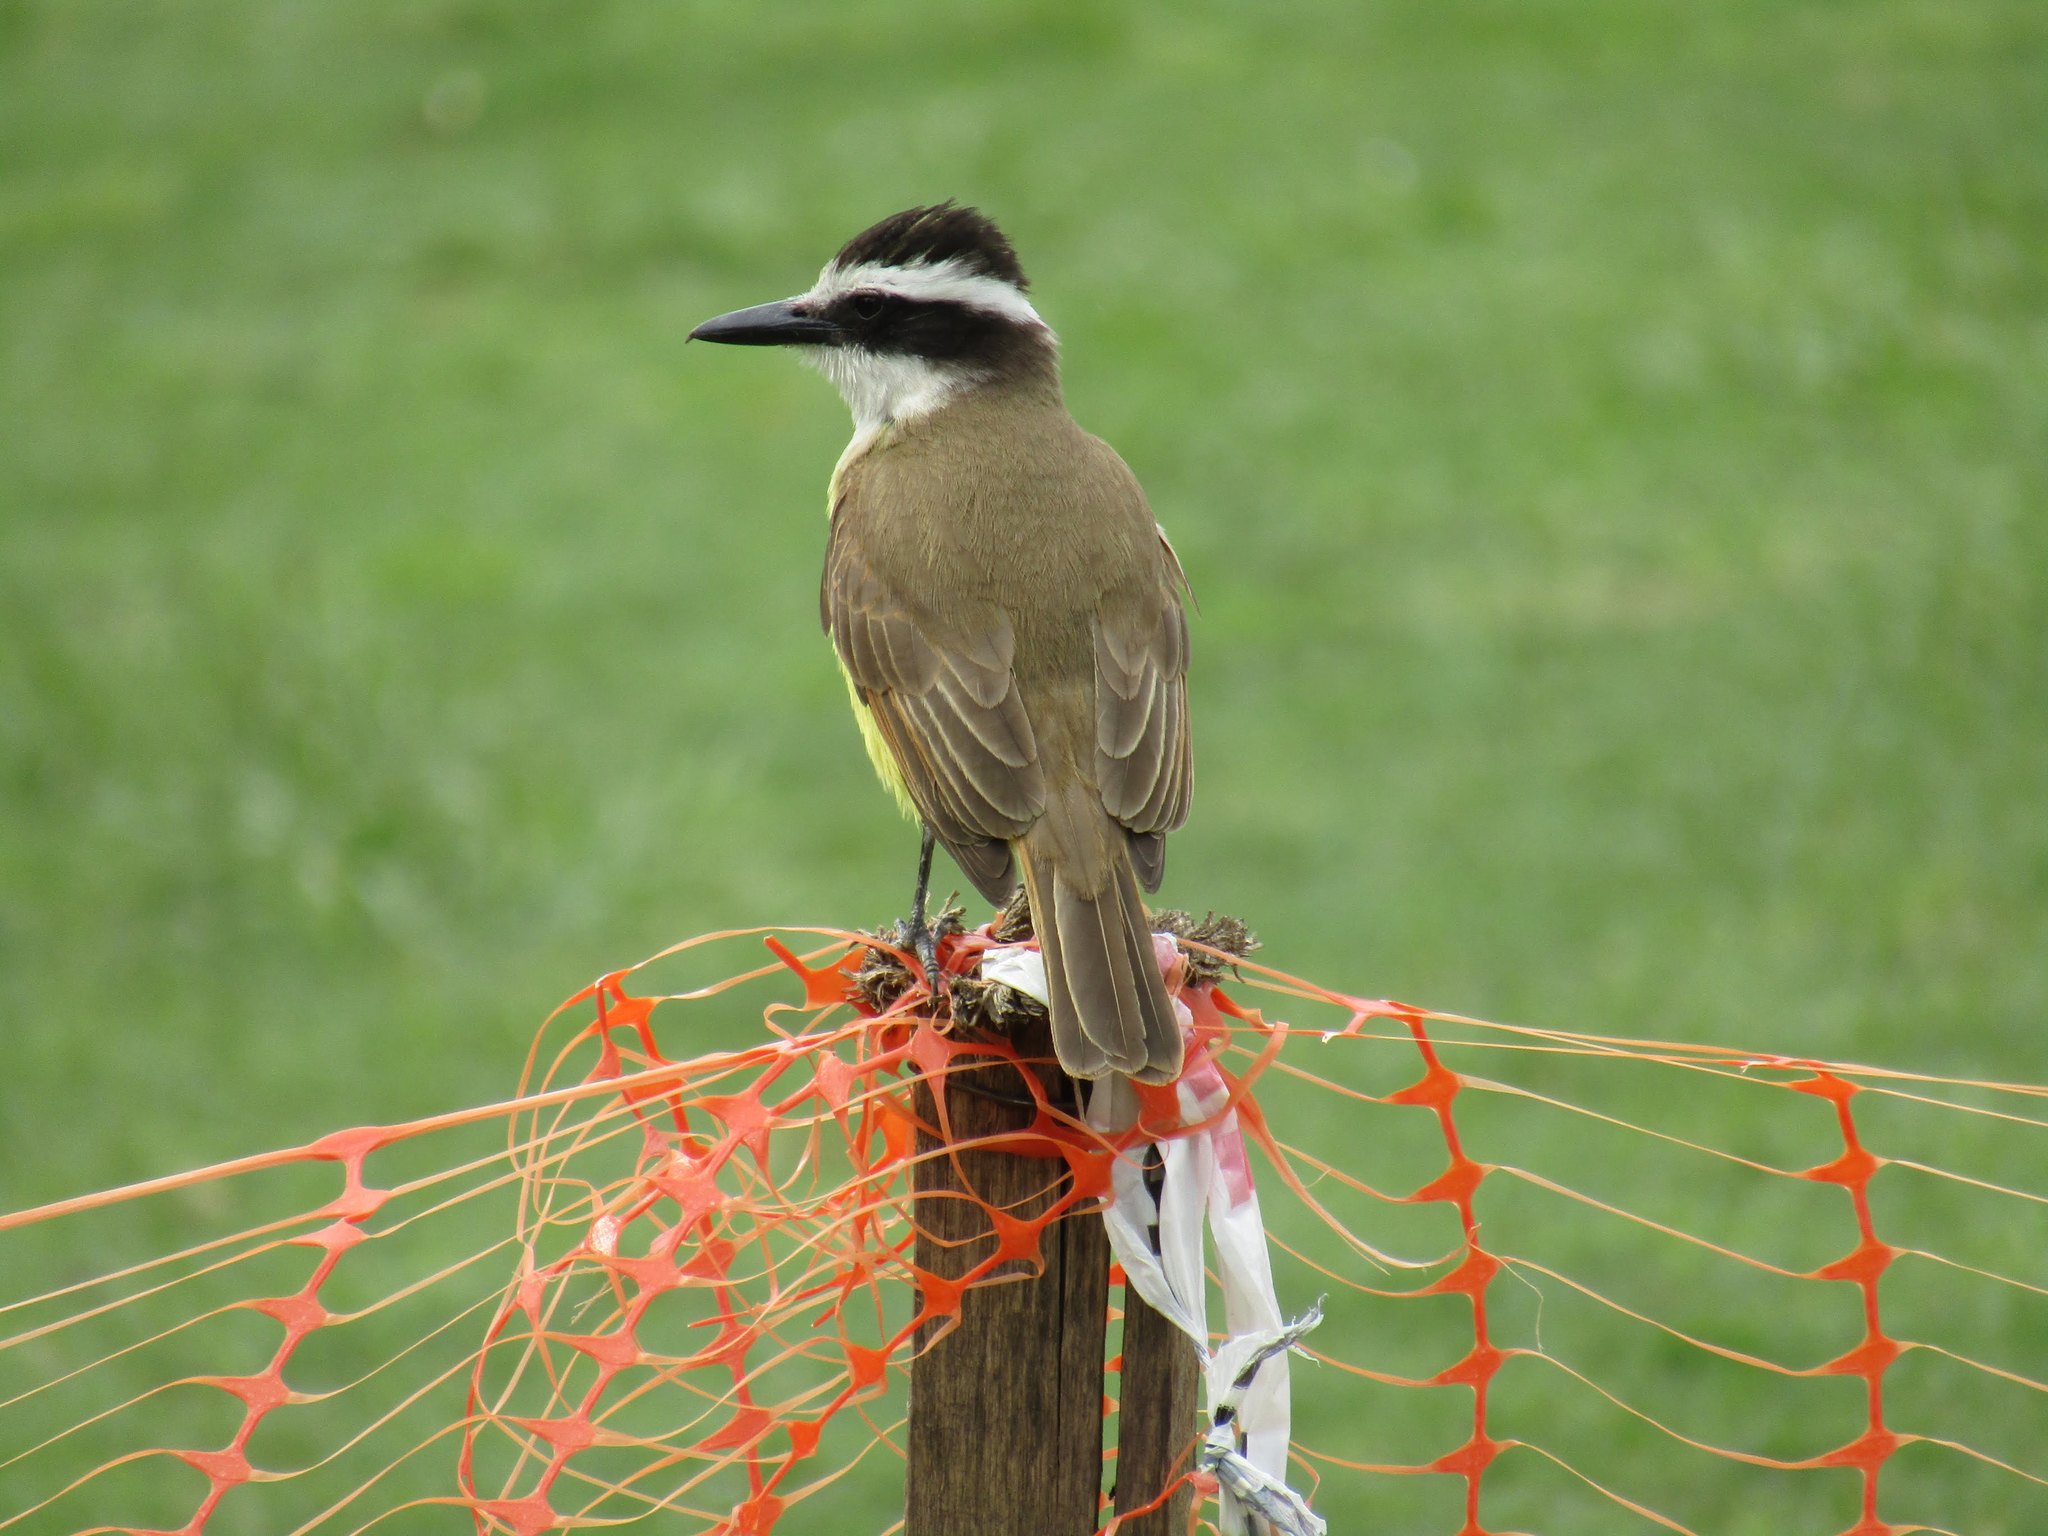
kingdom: Animalia
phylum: Chordata
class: Aves
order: Passeriformes
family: Tyrannidae
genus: Pitangus
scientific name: Pitangus sulphuratus
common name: Great kiskadee
